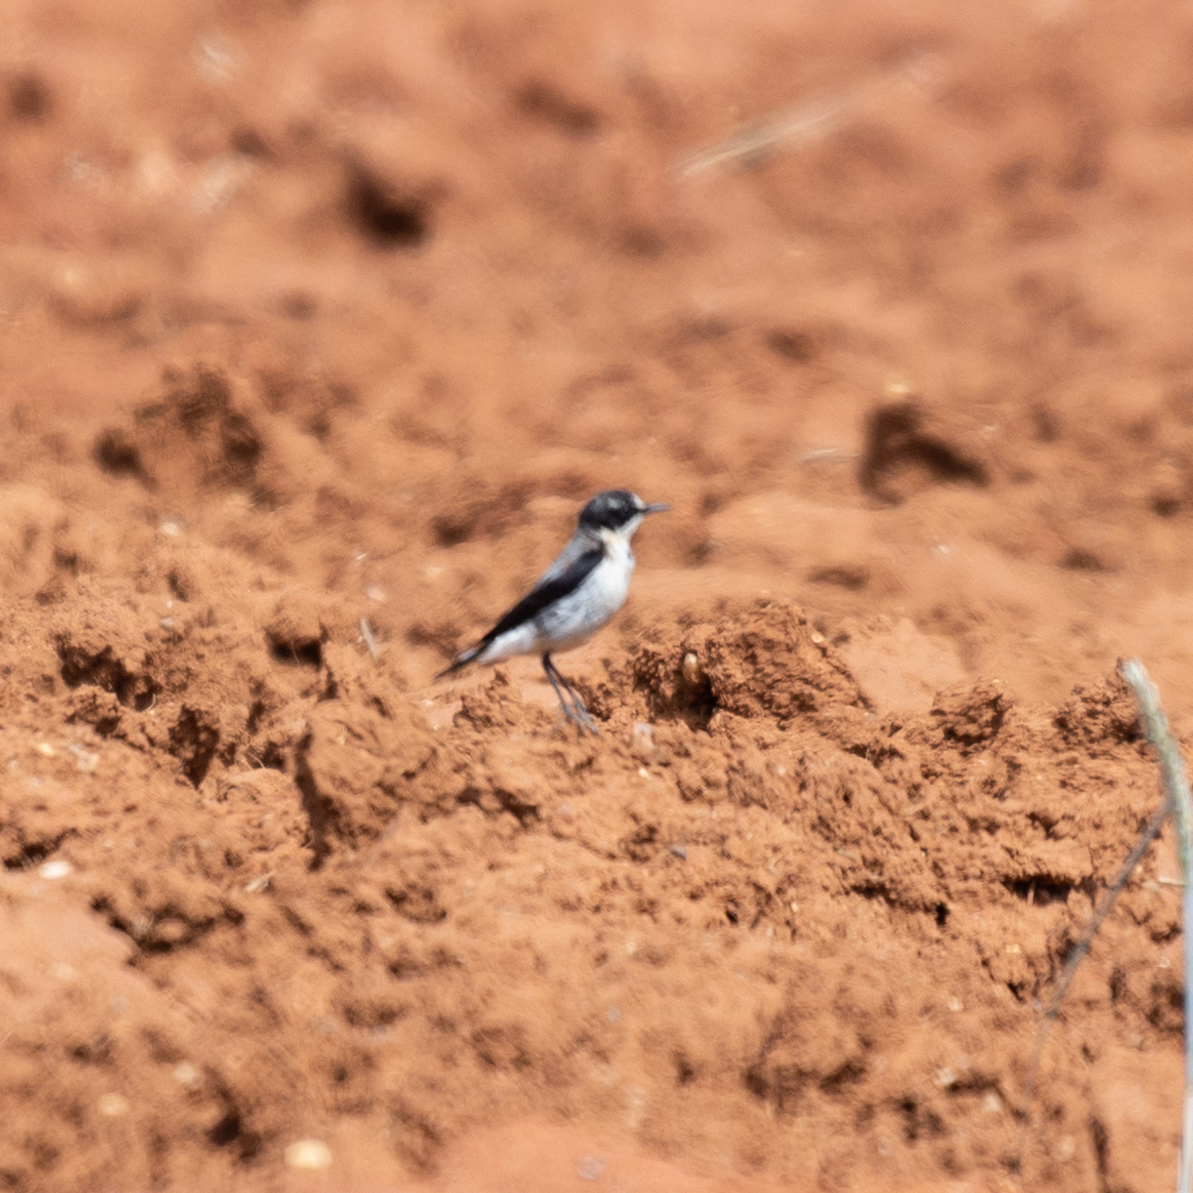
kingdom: Animalia
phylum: Chordata
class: Aves
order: Passeriformes
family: Muscicapidae
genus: Oenanthe
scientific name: Oenanthe oenanthe
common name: Northern wheatear
